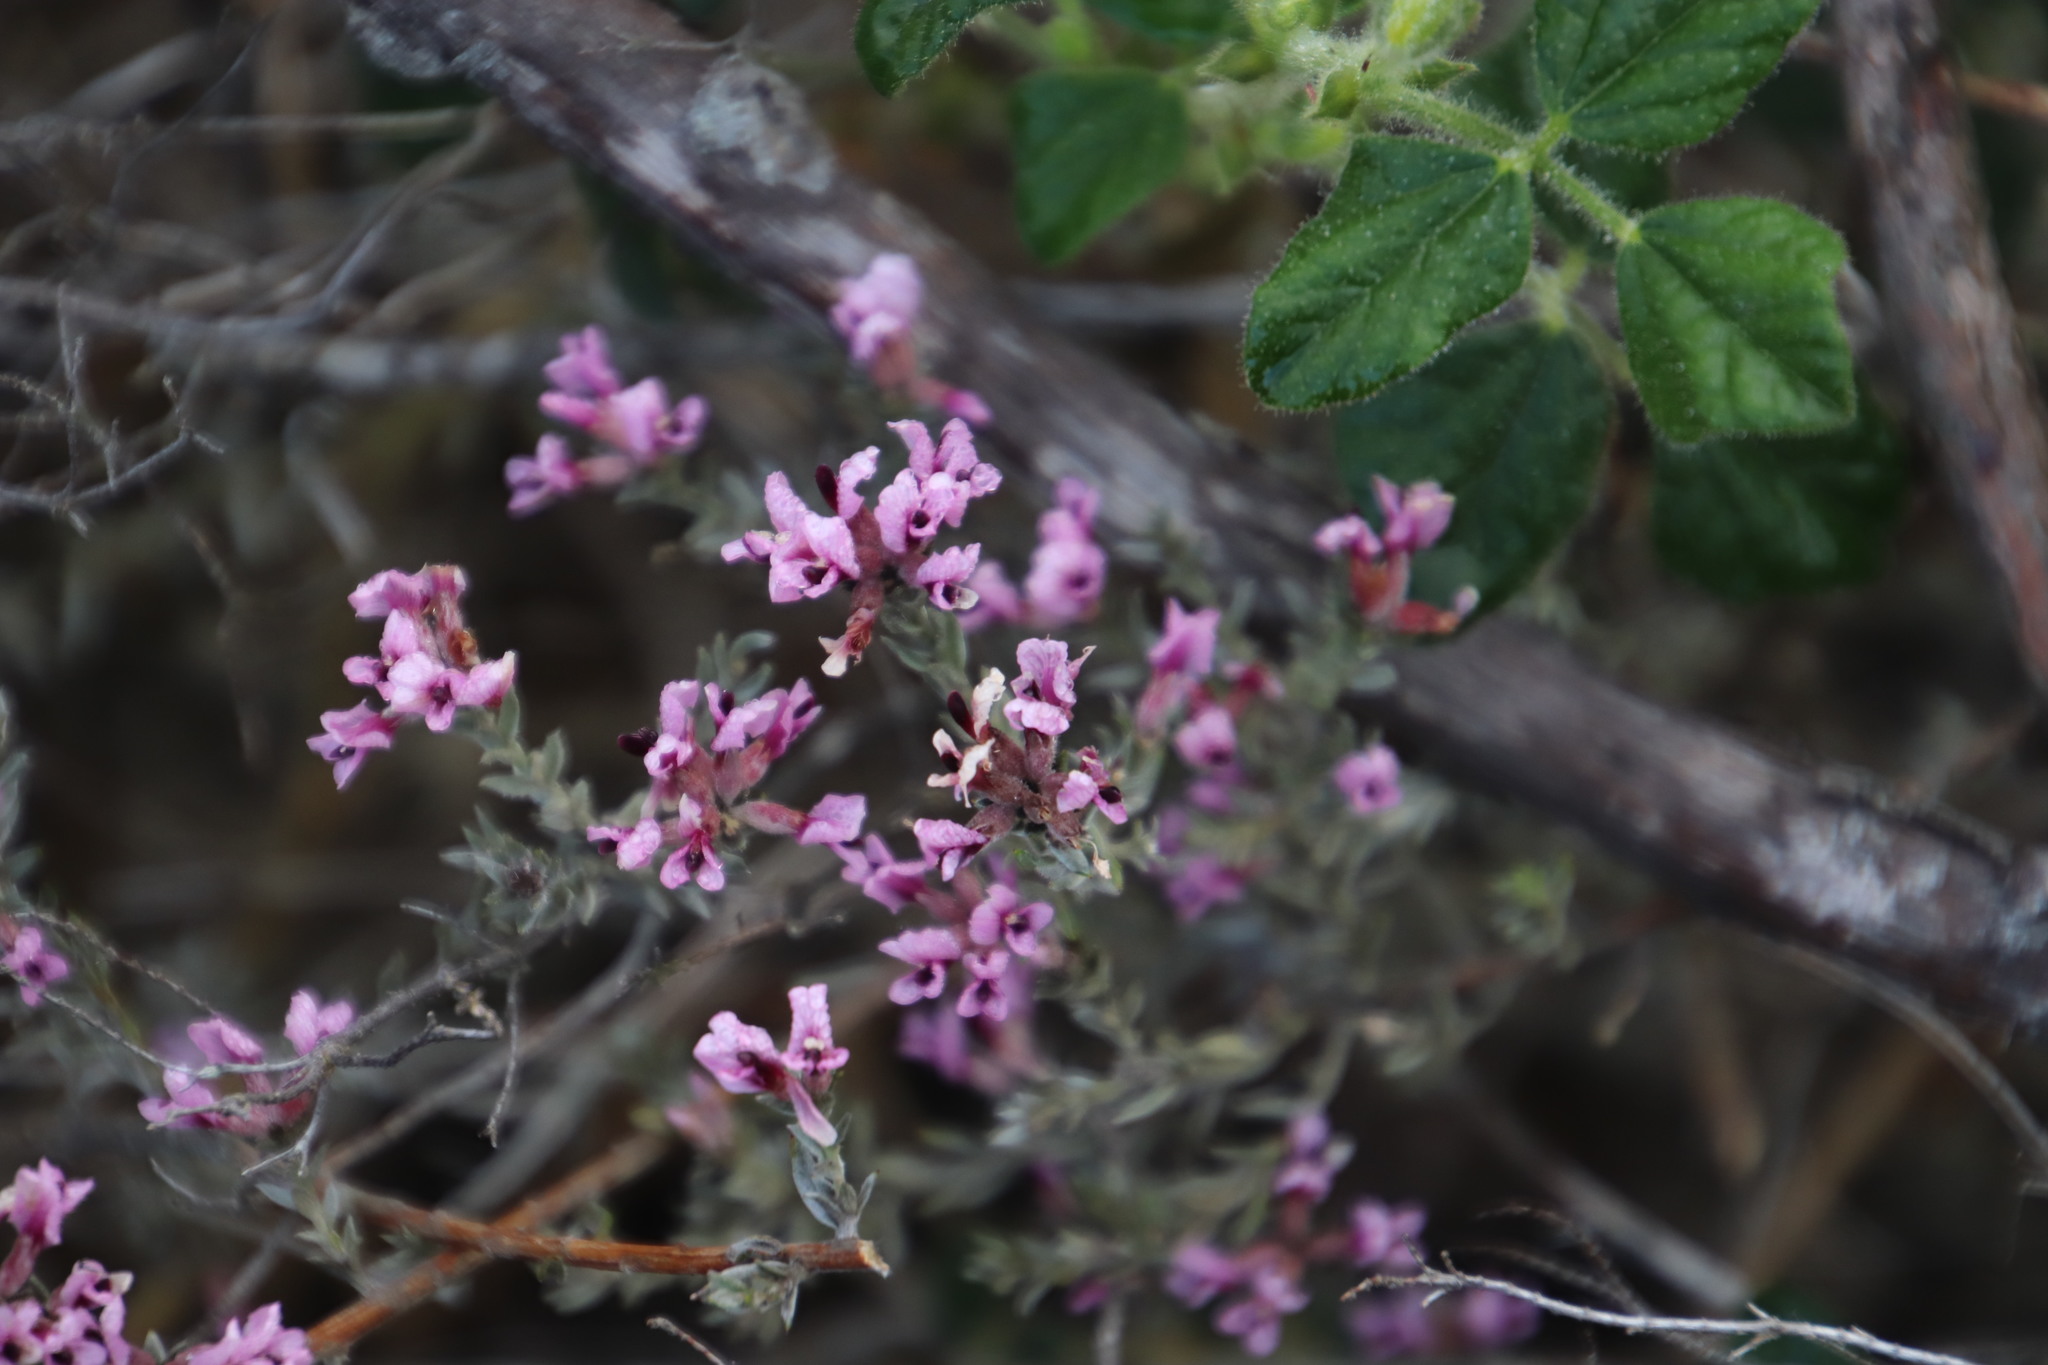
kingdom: Plantae
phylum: Tracheophyta
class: Magnoliopsida
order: Fabales
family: Fabaceae
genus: Amphithalea
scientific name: Amphithalea ericifolia
